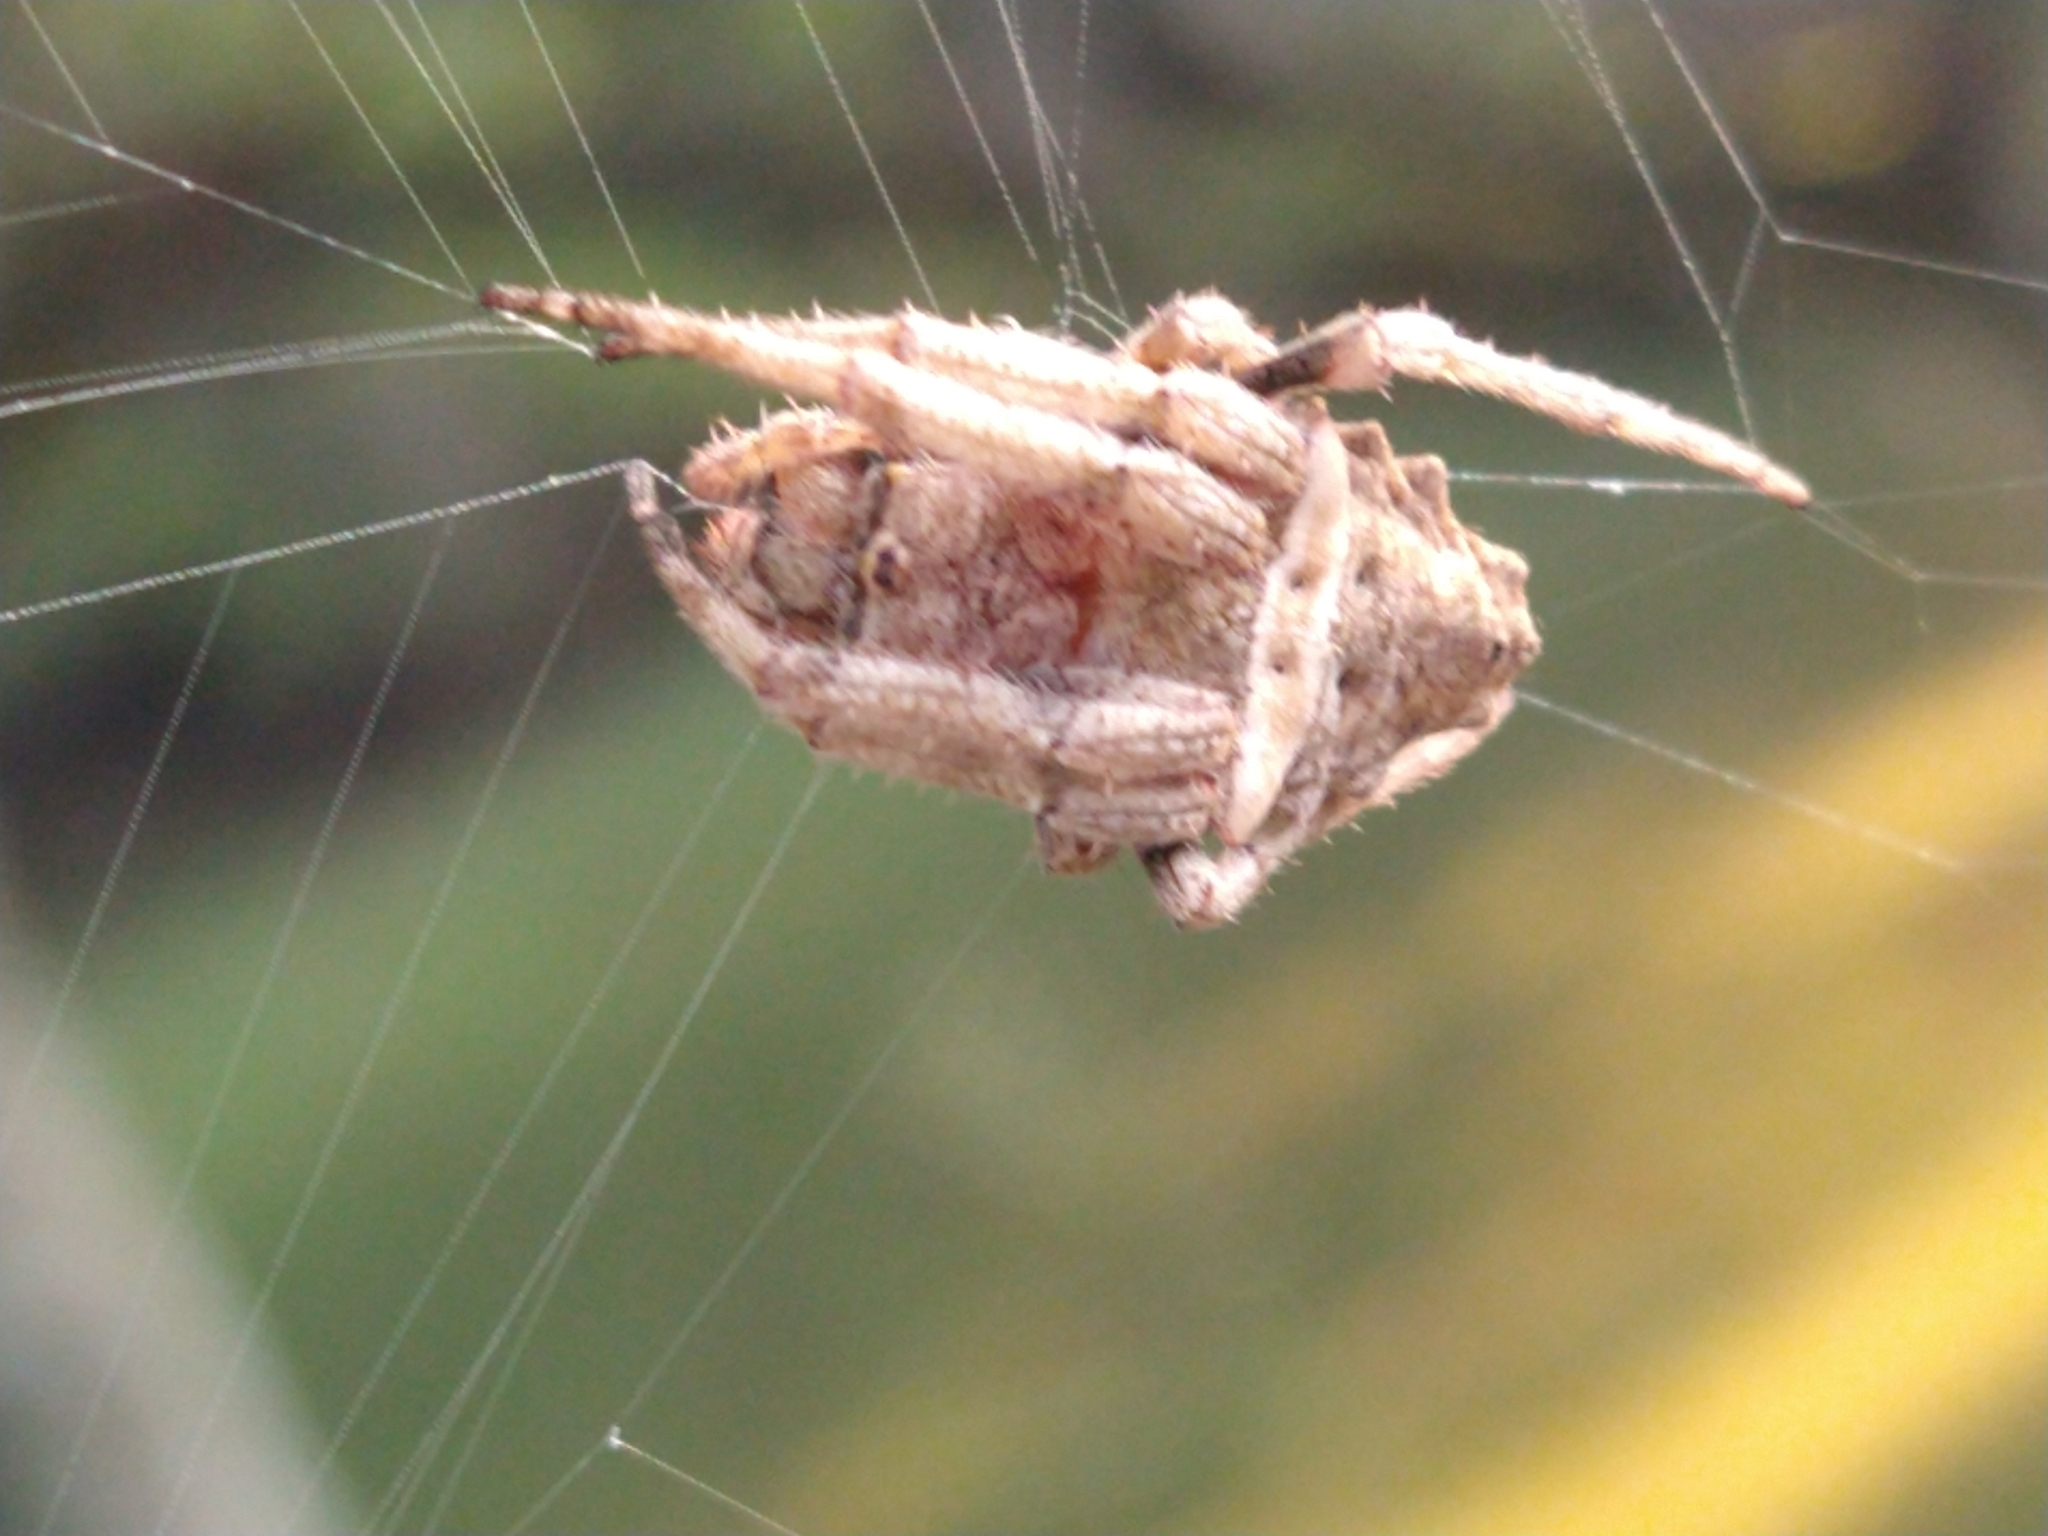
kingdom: Animalia
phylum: Arthropoda
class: Arachnida
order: Araneae
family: Araneidae
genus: Parawixia
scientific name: Parawixia audax
